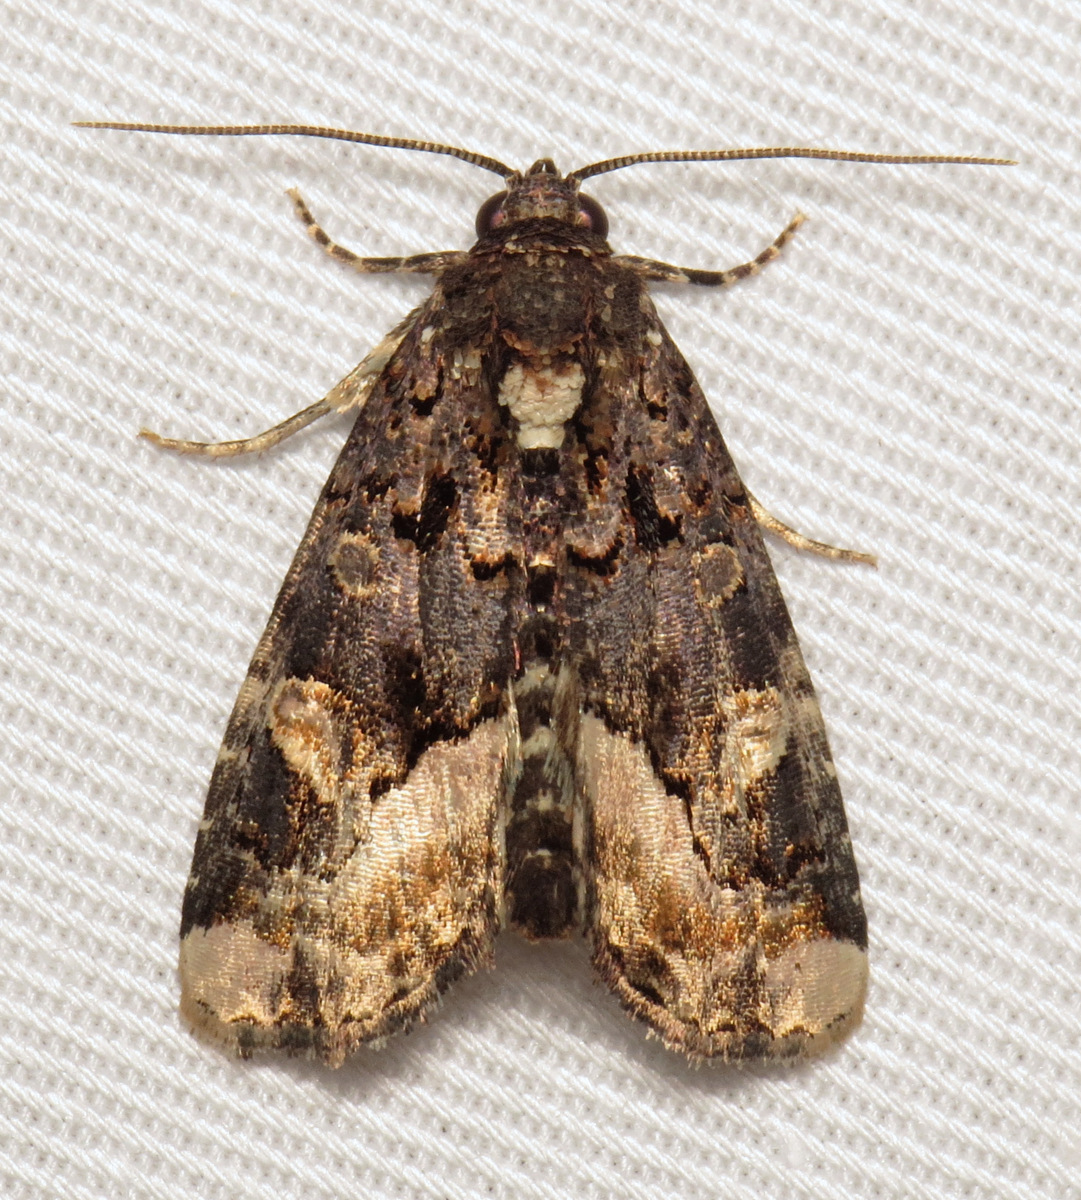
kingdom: Animalia
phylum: Arthropoda
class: Insecta
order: Lepidoptera
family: Noctuidae
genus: Homophoberia
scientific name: Homophoberia apicosa
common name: Black wedge-spot
